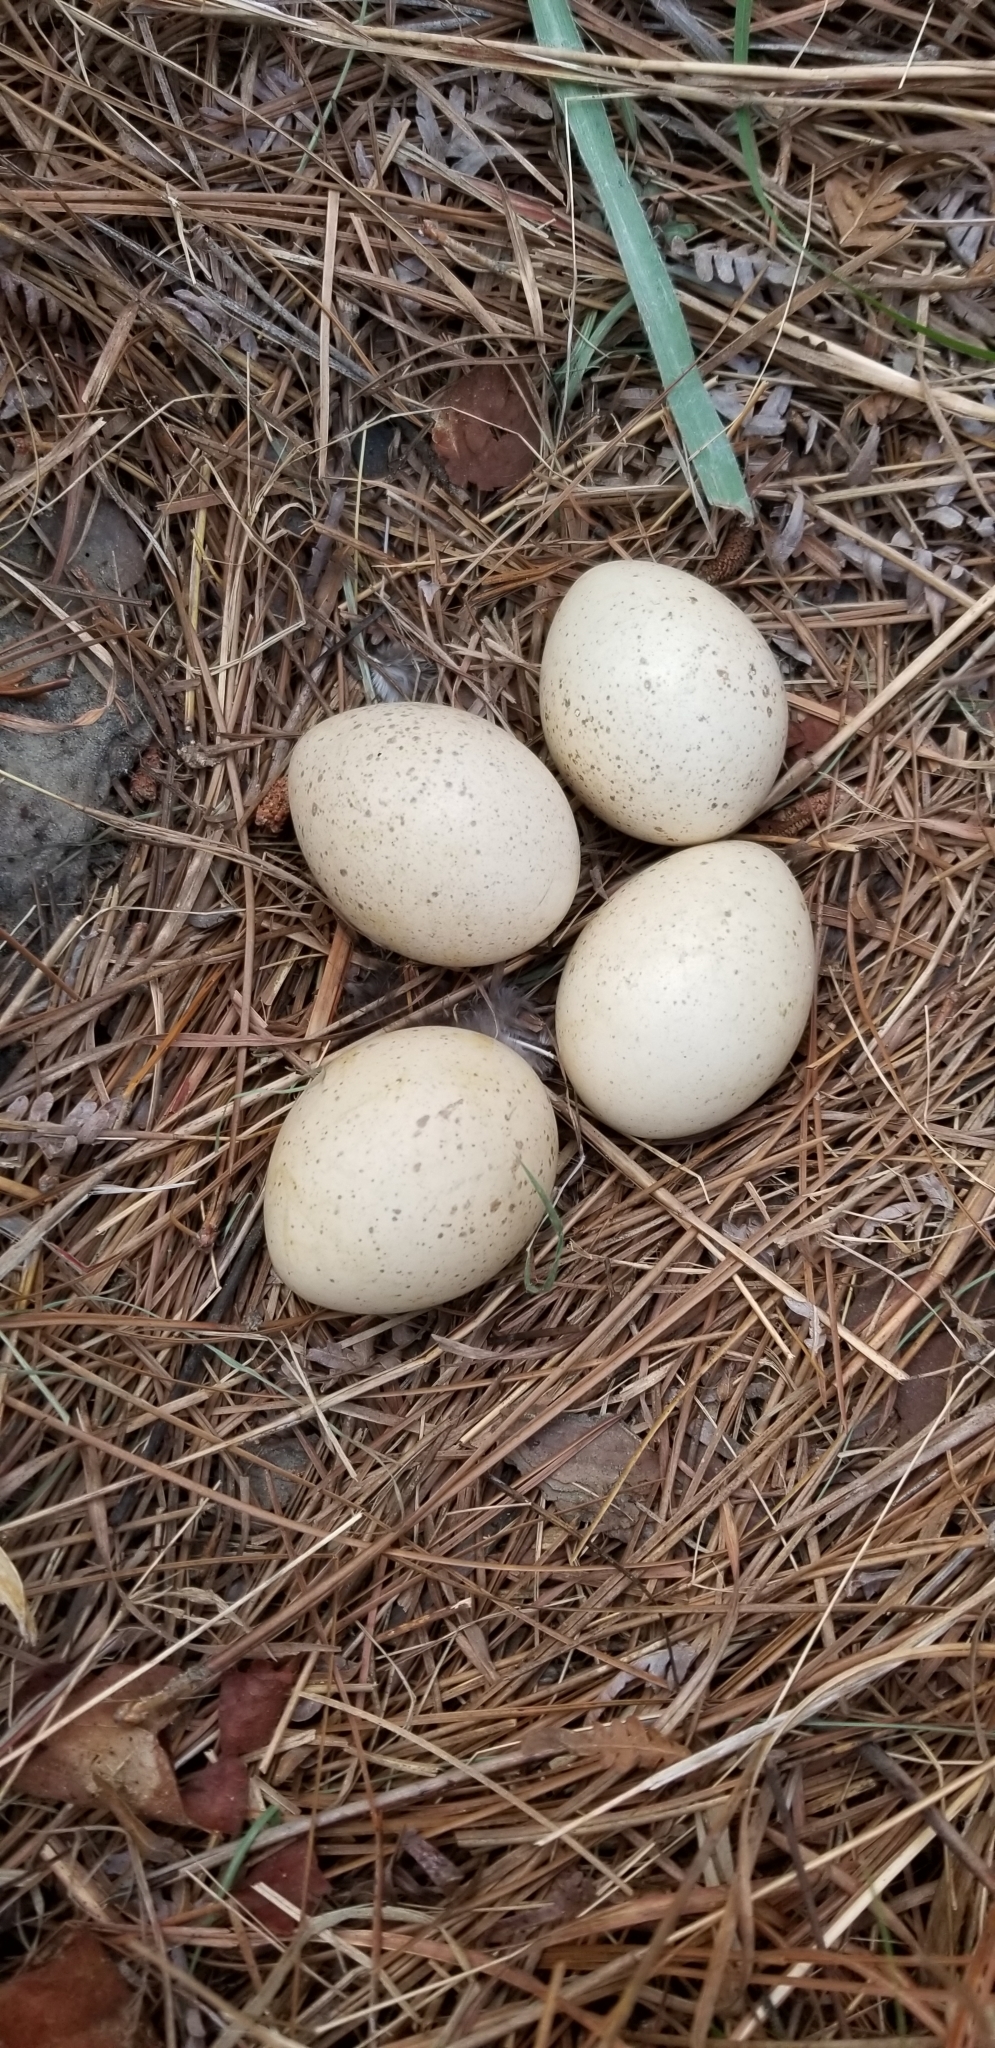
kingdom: Animalia
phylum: Chordata
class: Aves
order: Galliformes
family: Phasianidae
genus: Meleagris
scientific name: Meleagris gallopavo
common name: Wild turkey
